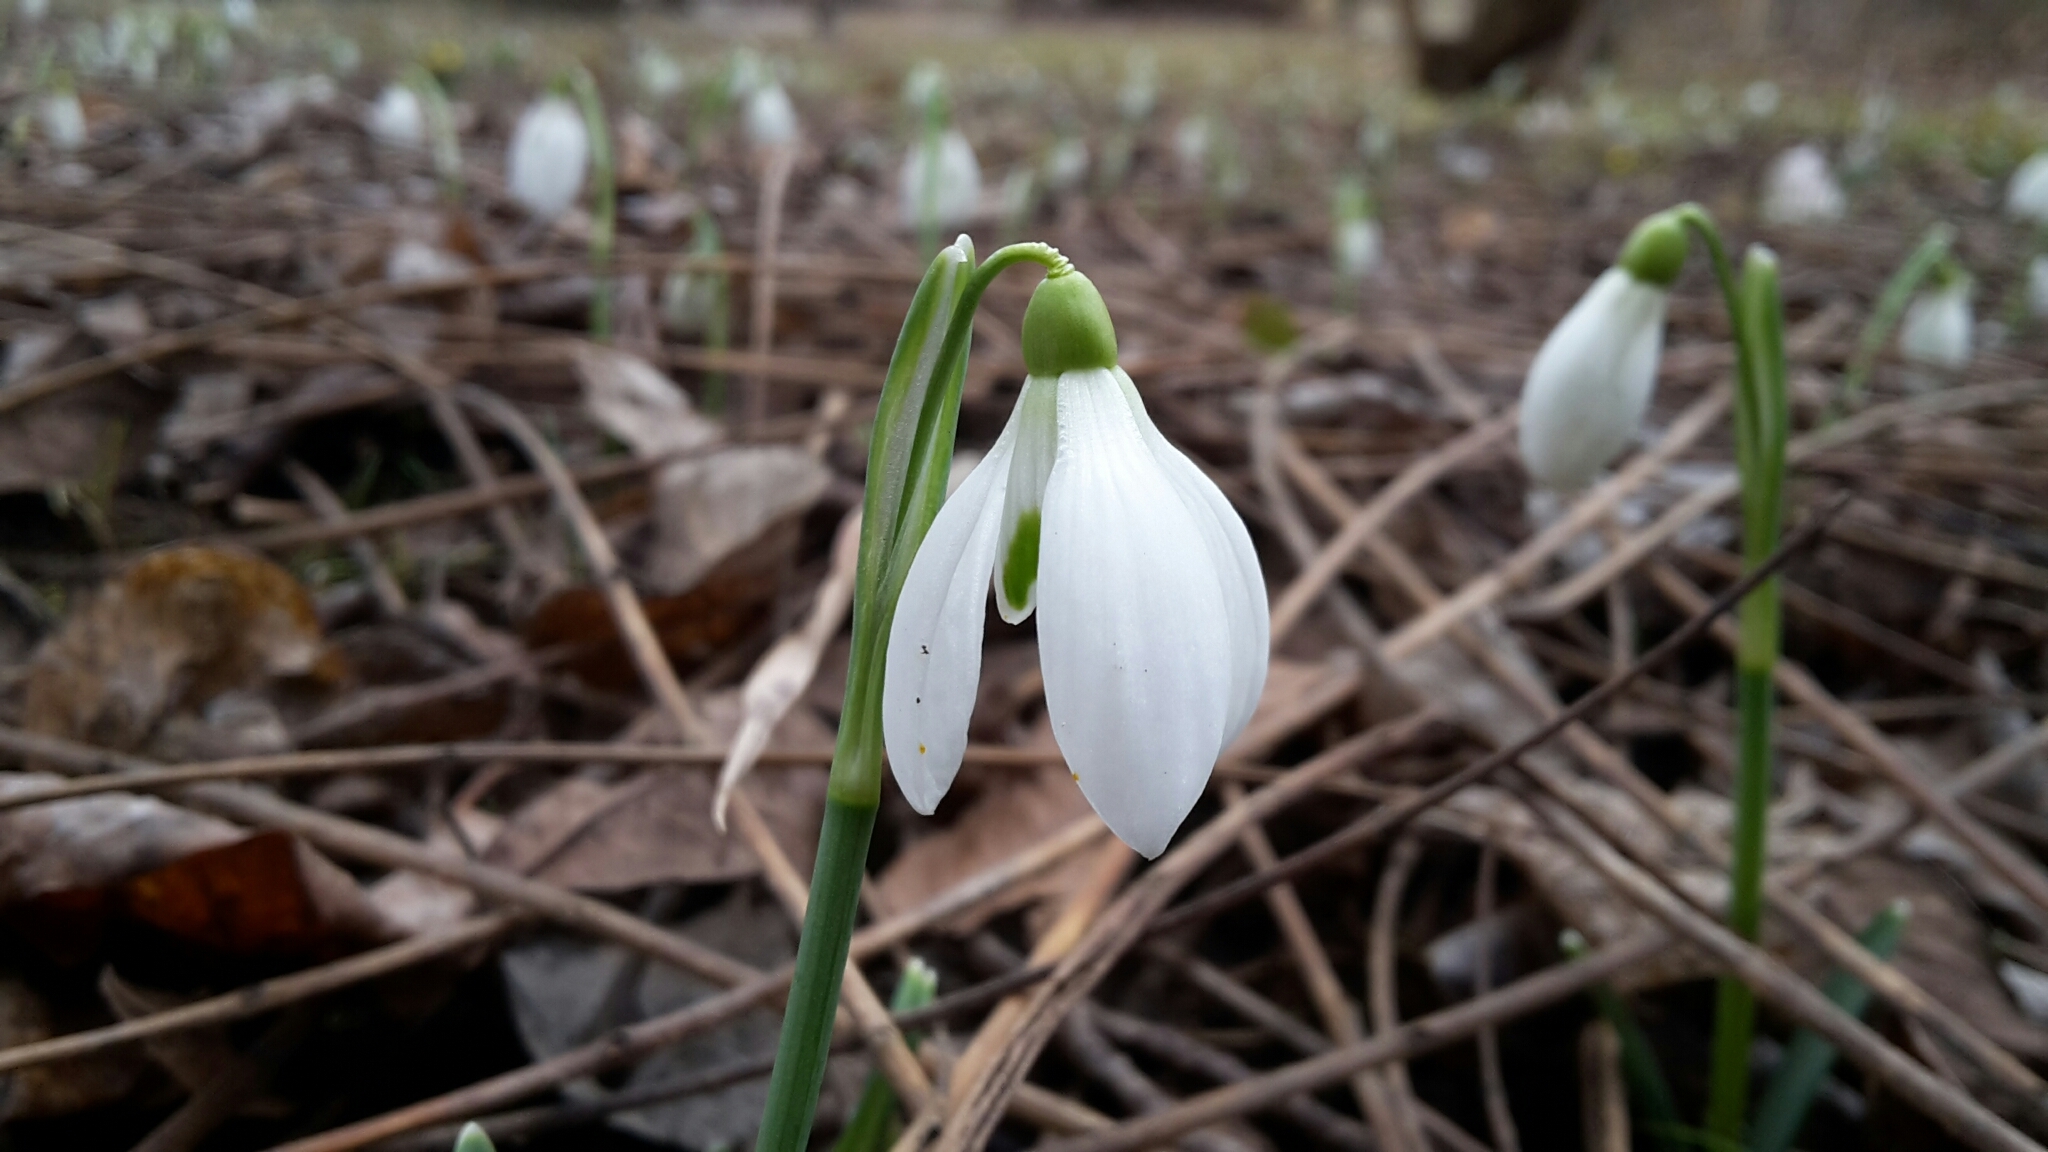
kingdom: Plantae
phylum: Tracheophyta
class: Liliopsida
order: Asparagales
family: Amaryllidaceae
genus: Galanthus
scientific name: Galanthus nivalis
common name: Snowdrop
